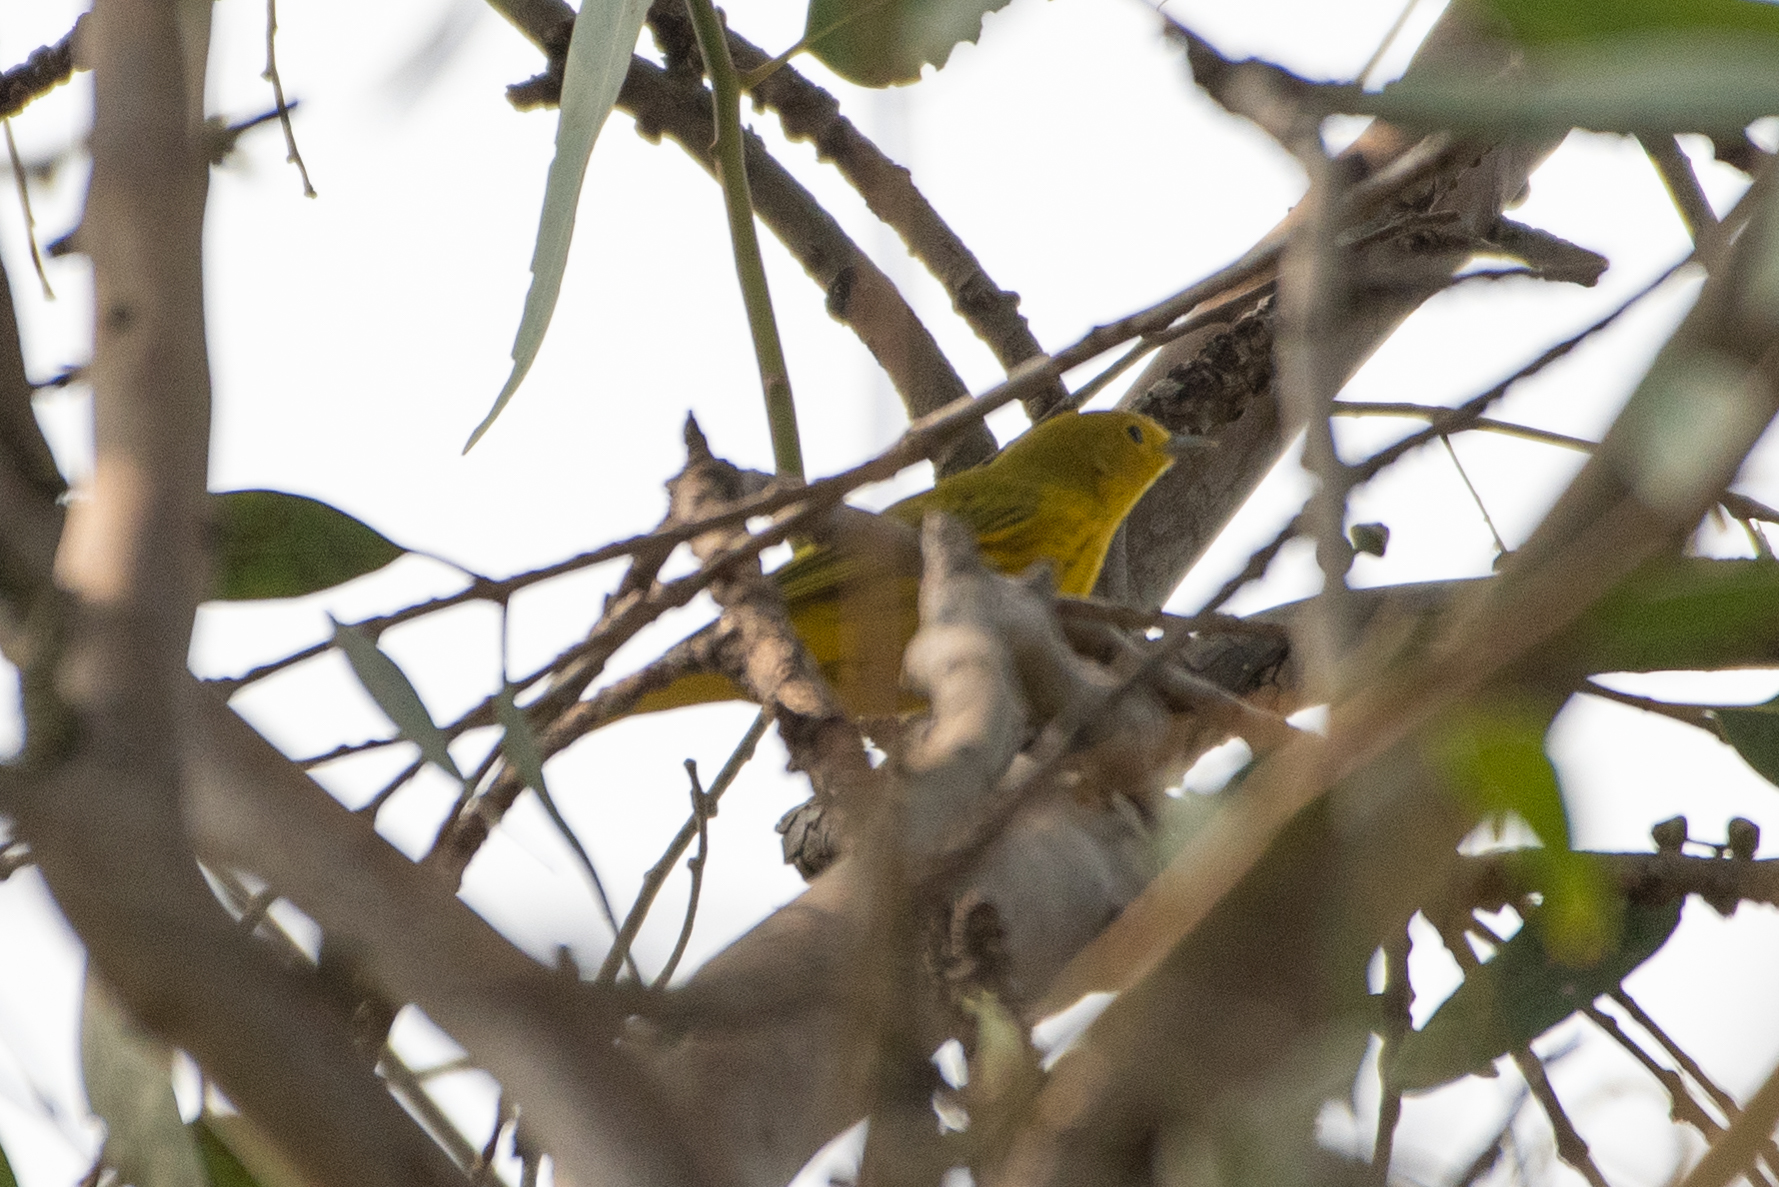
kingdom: Animalia
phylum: Chordata
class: Aves
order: Passeriformes
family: Parulidae
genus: Setophaga
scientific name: Setophaga petechia
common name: Yellow warbler
